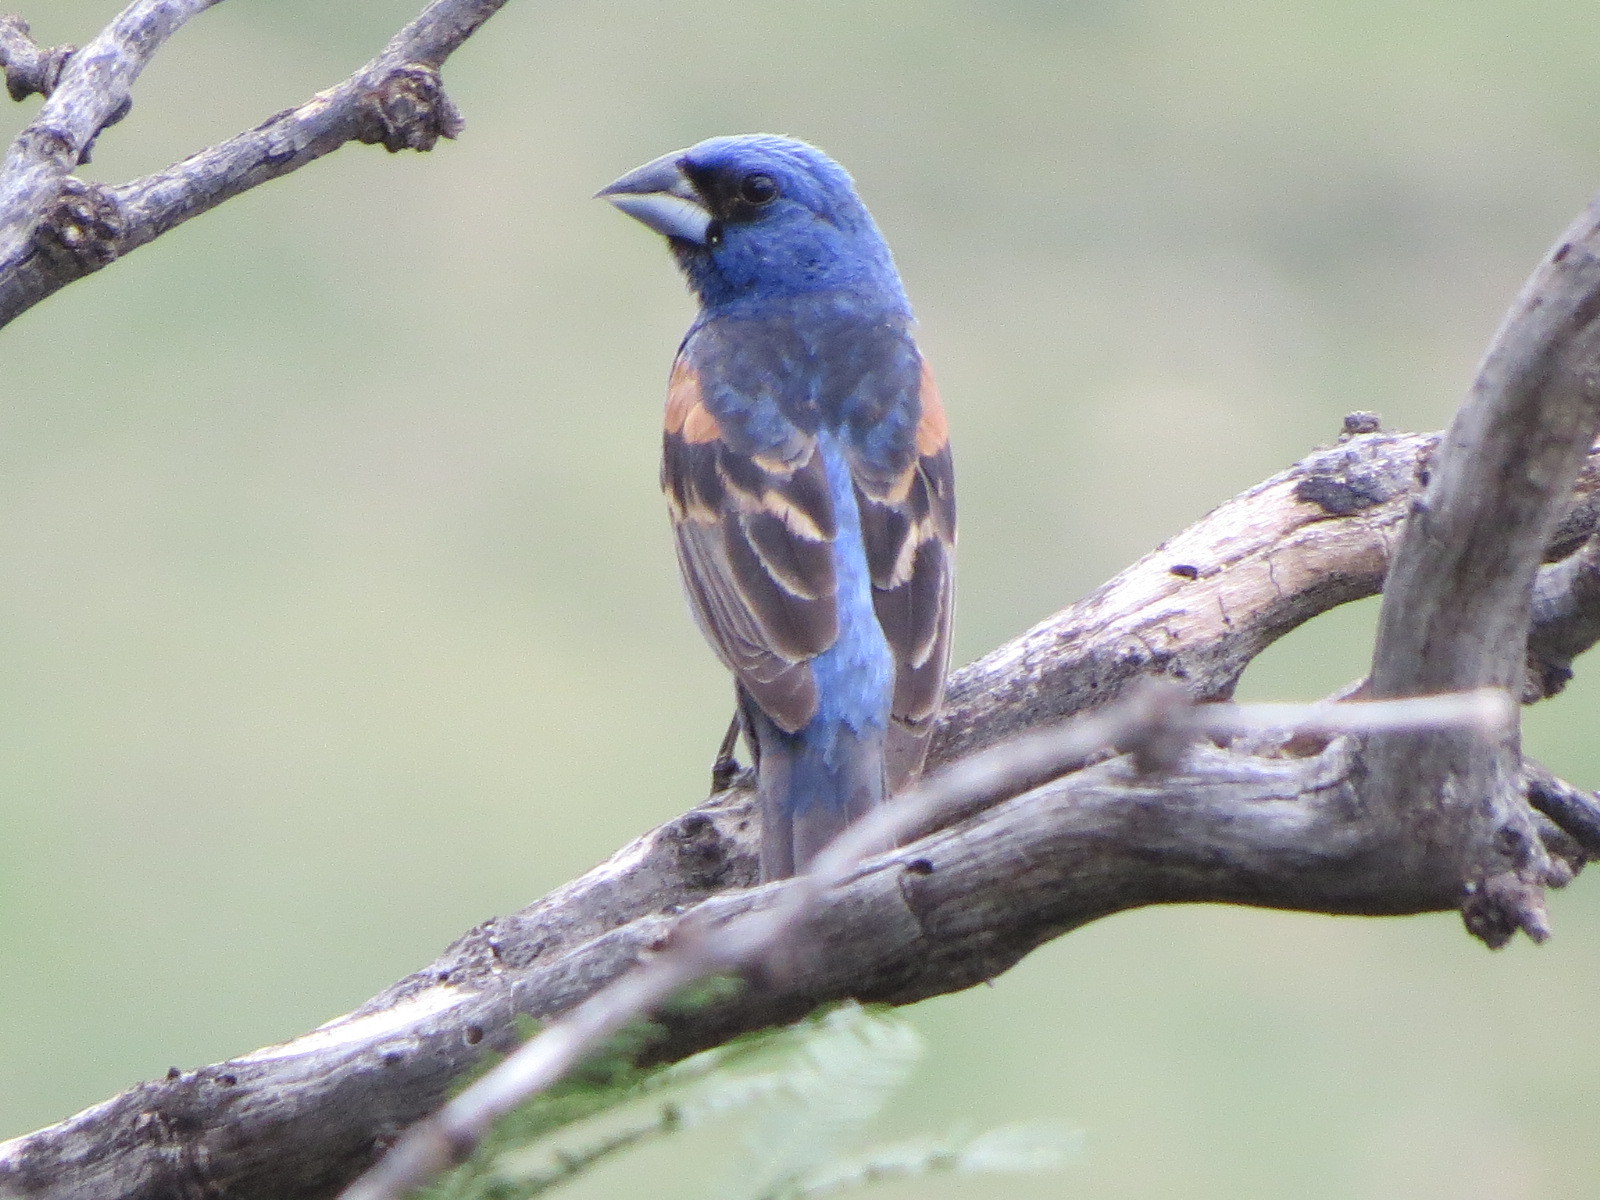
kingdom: Animalia
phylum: Chordata
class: Aves
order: Passeriformes
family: Cardinalidae
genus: Passerina
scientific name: Passerina caerulea
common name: Blue grosbeak
